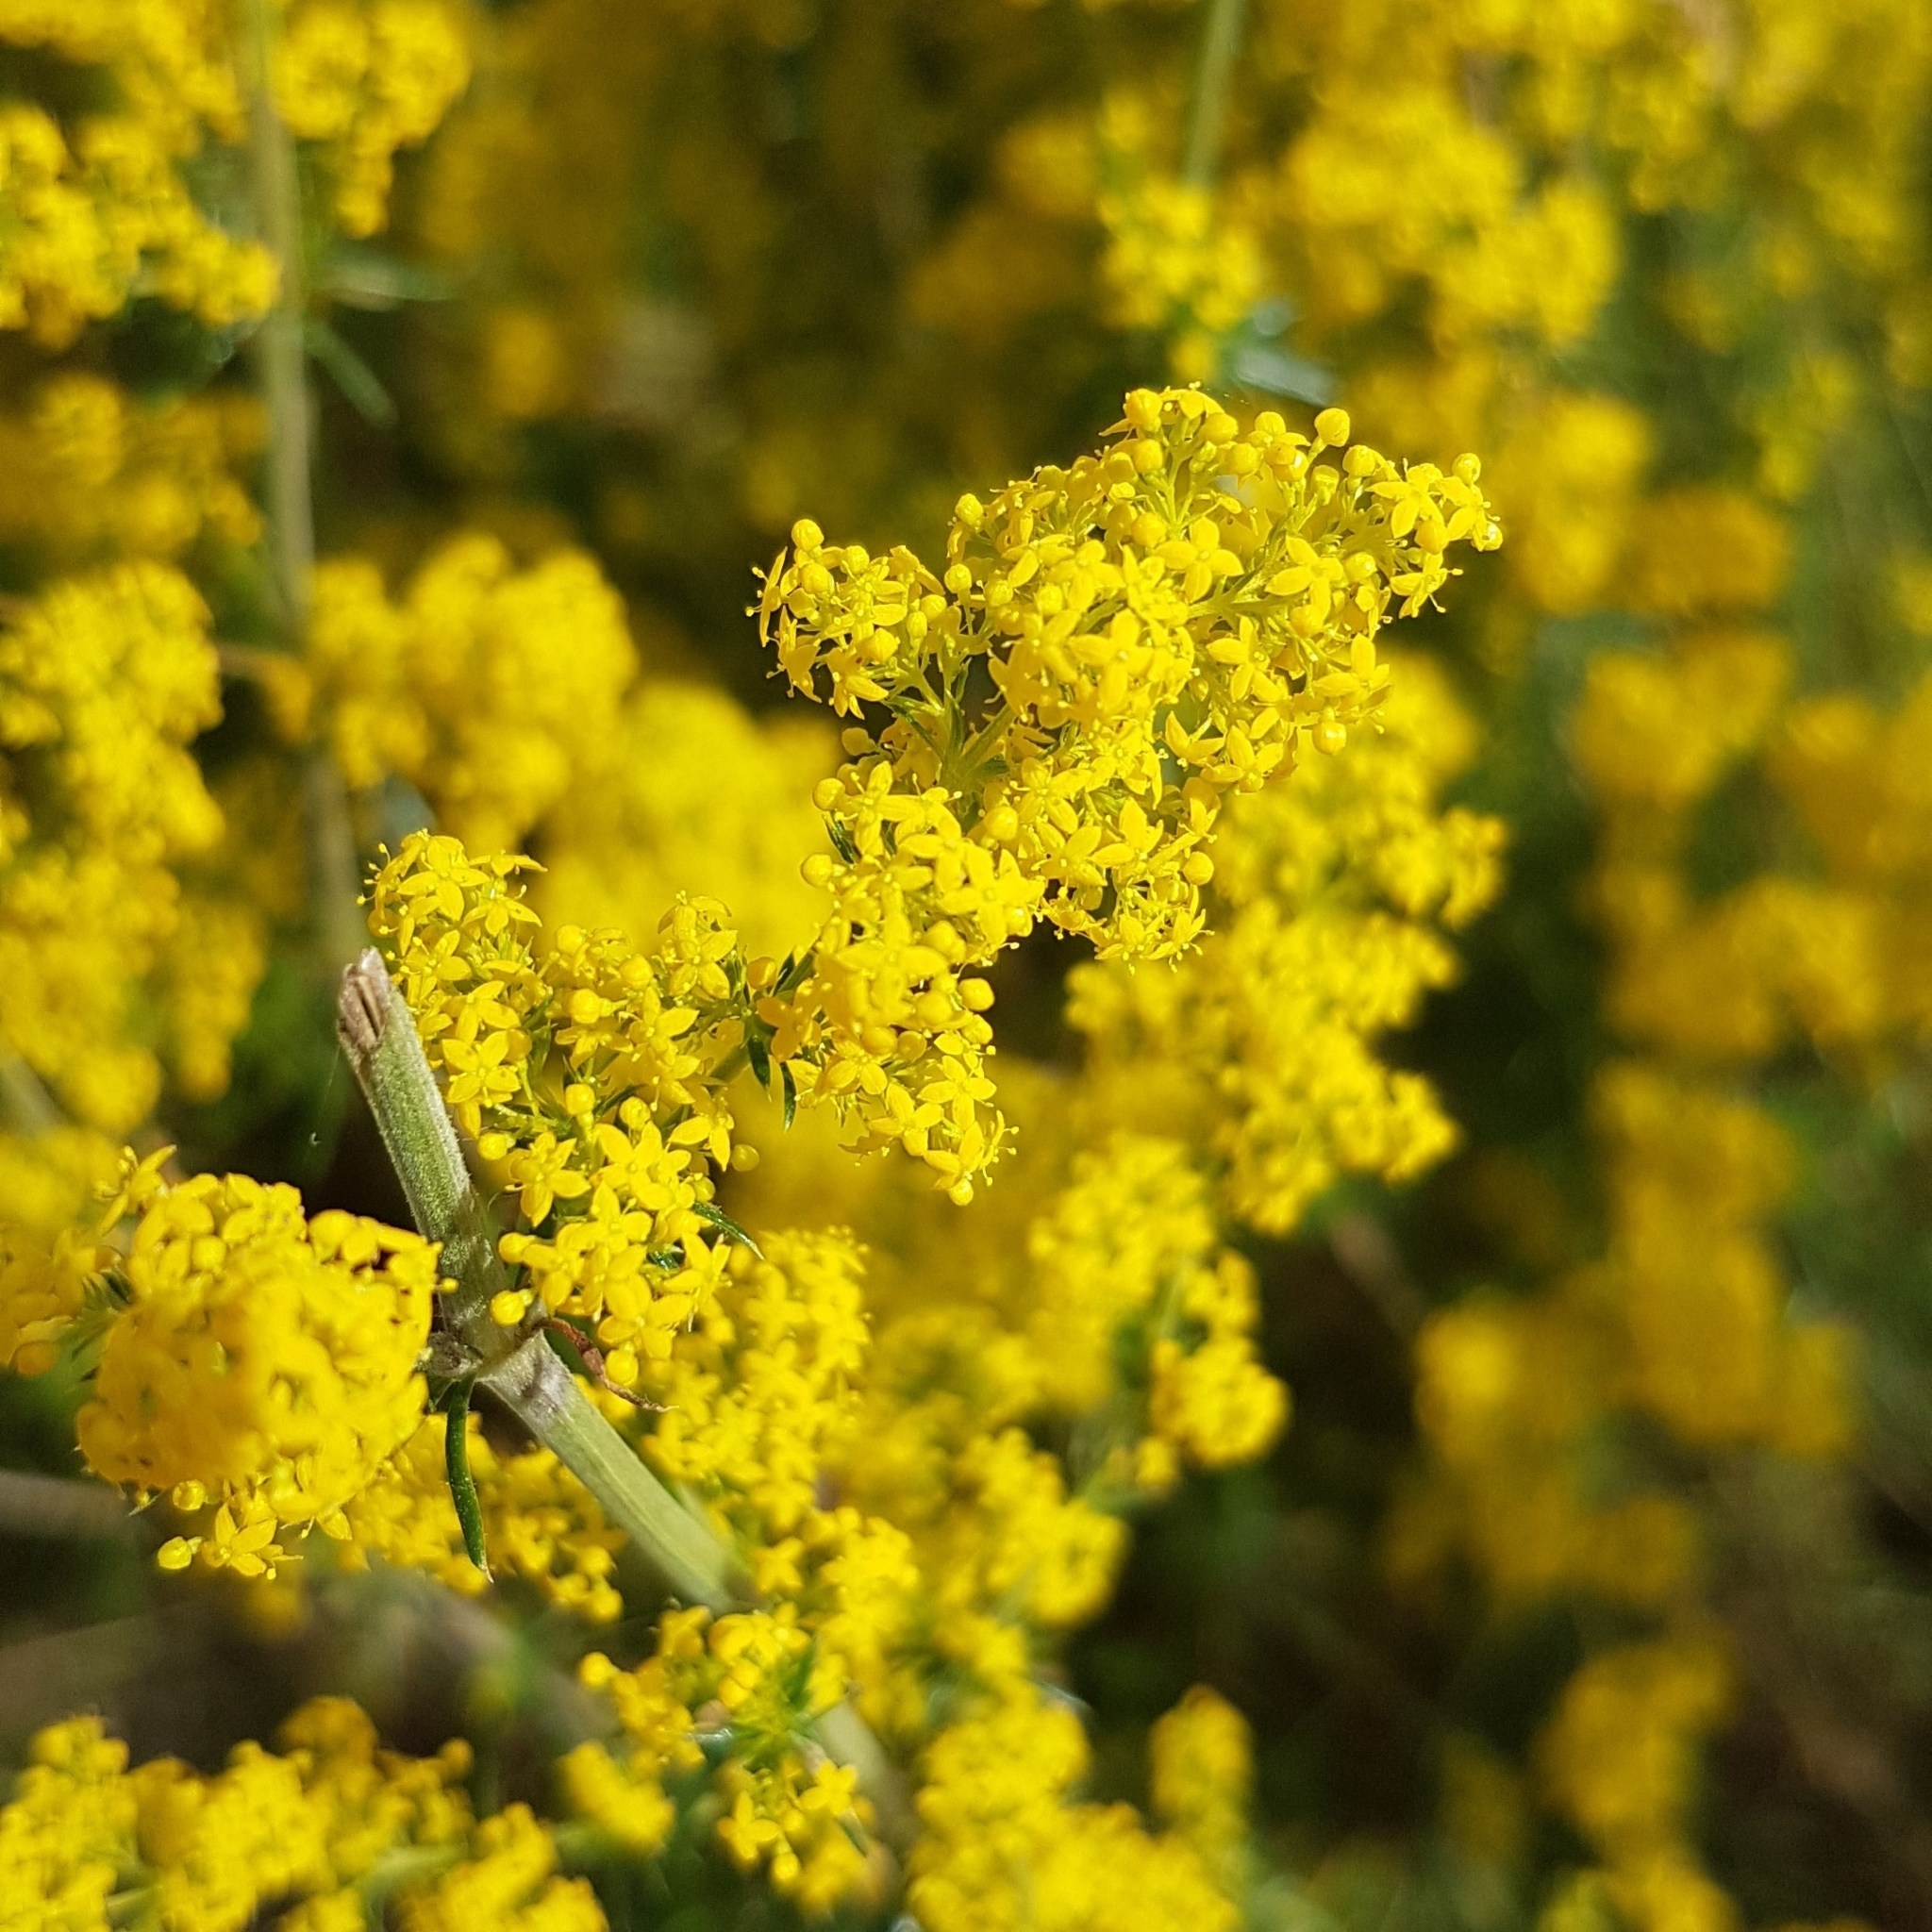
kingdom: Plantae
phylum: Tracheophyta
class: Magnoliopsida
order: Gentianales
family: Rubiaceae
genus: Galium
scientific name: Galium verum
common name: Lady's bedstraw
